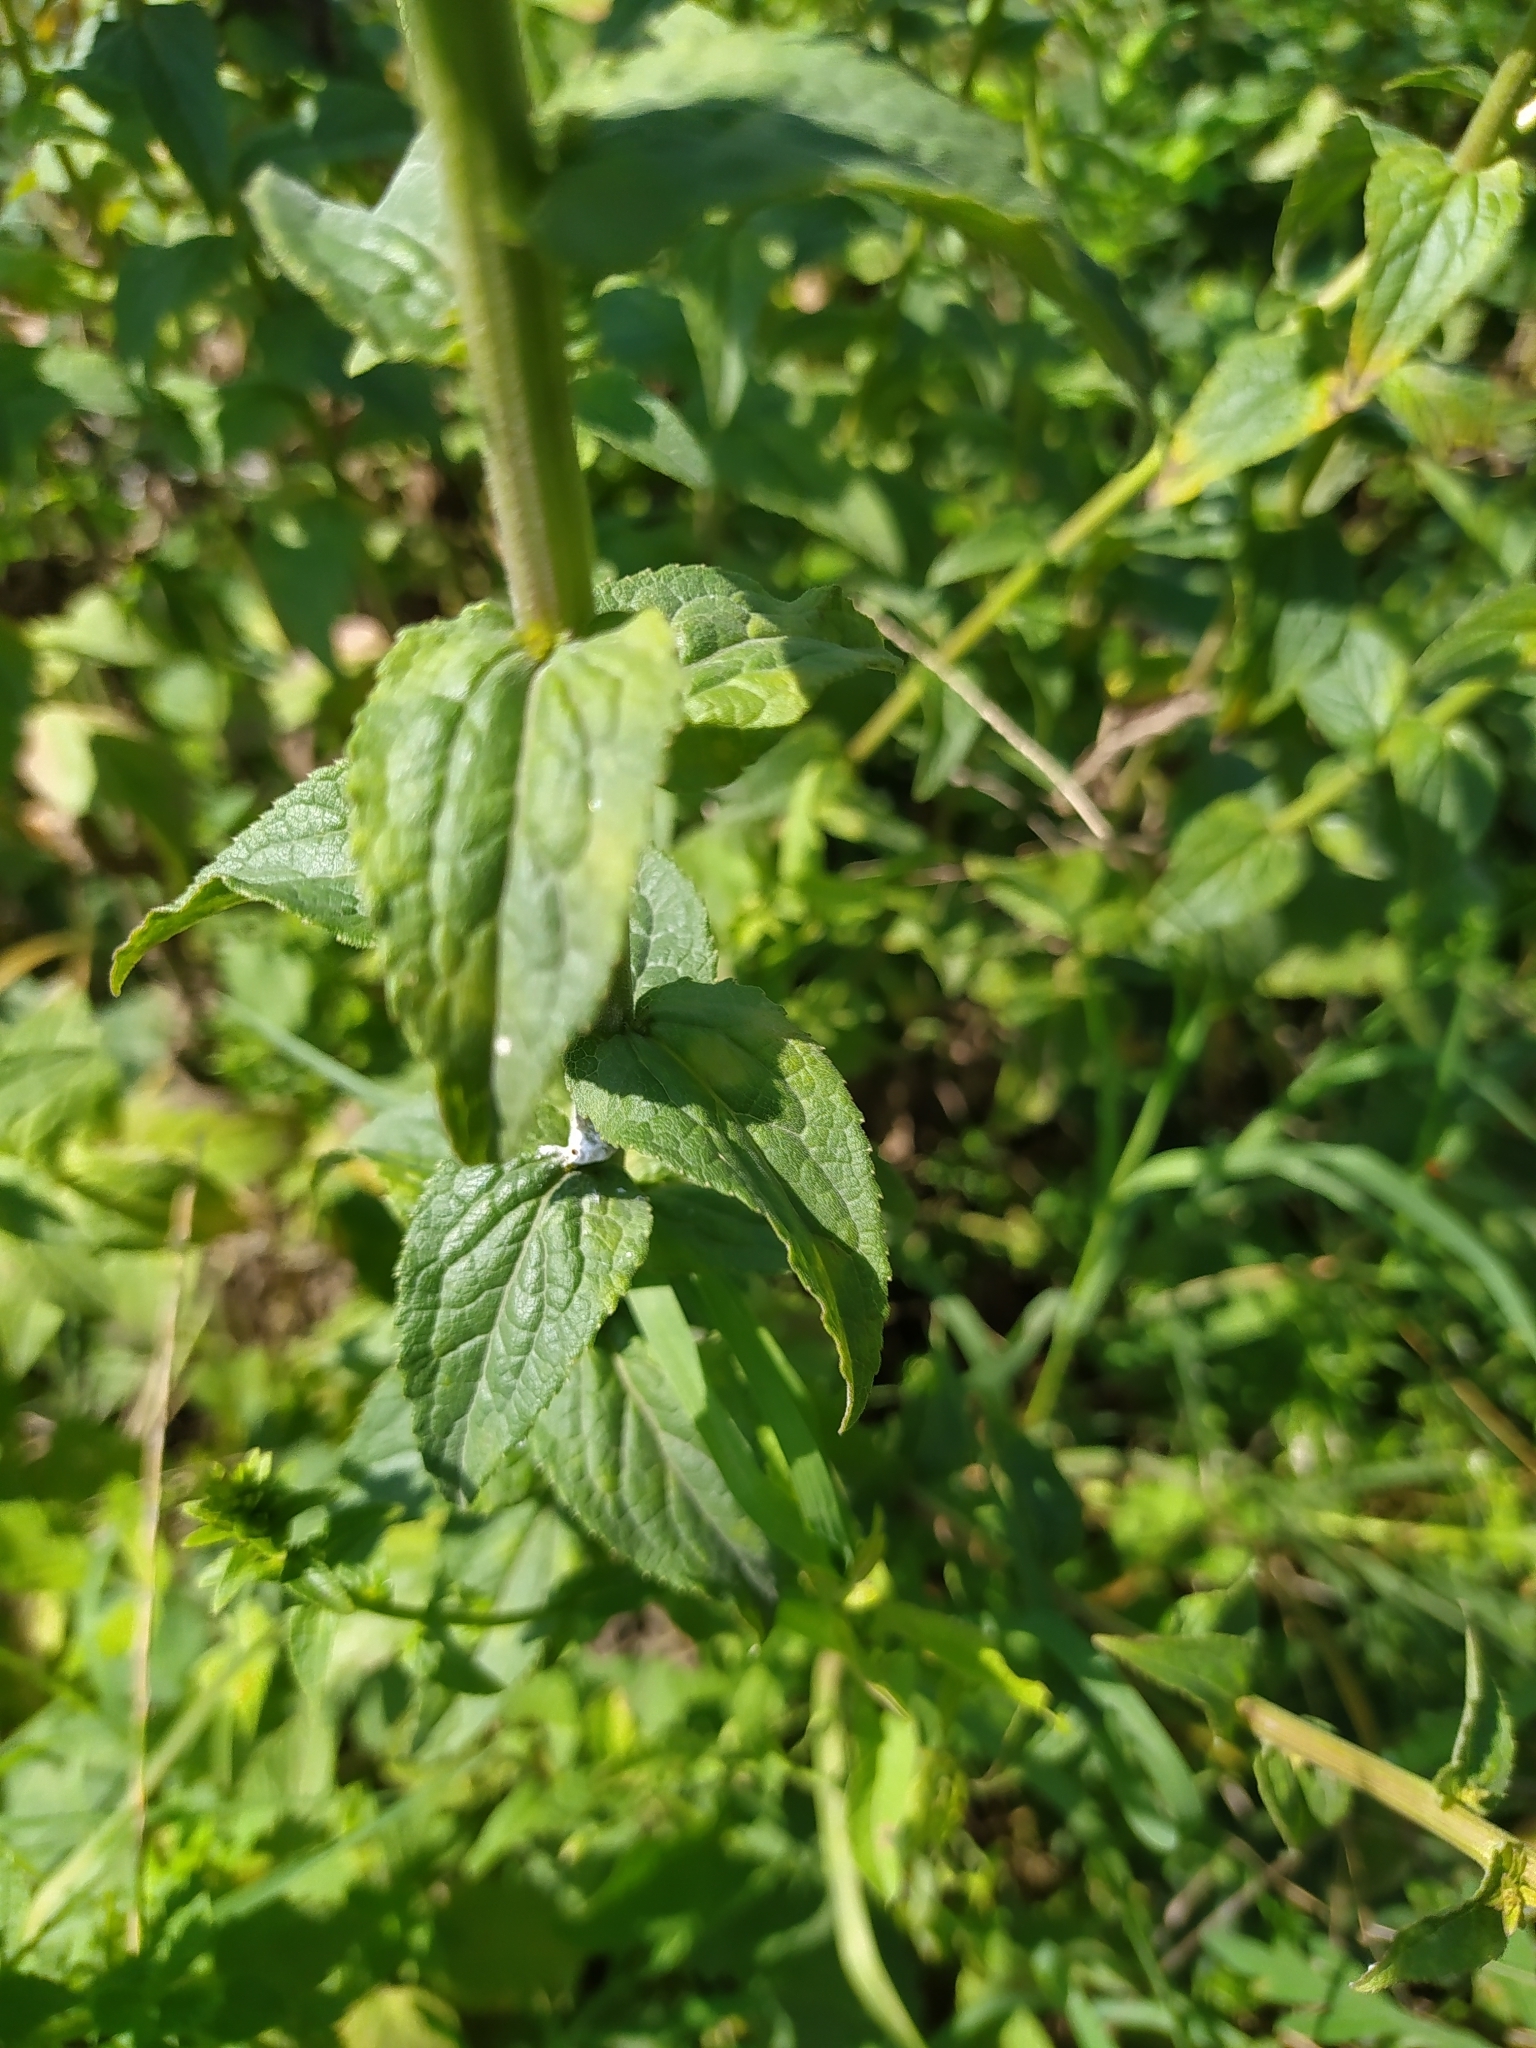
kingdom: Plantae
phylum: Tracheophyta
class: Magnoliopsida
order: Asterales
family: Campanulaceae
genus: Campanula
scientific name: Campanula bononiensis
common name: Pale bellflower
